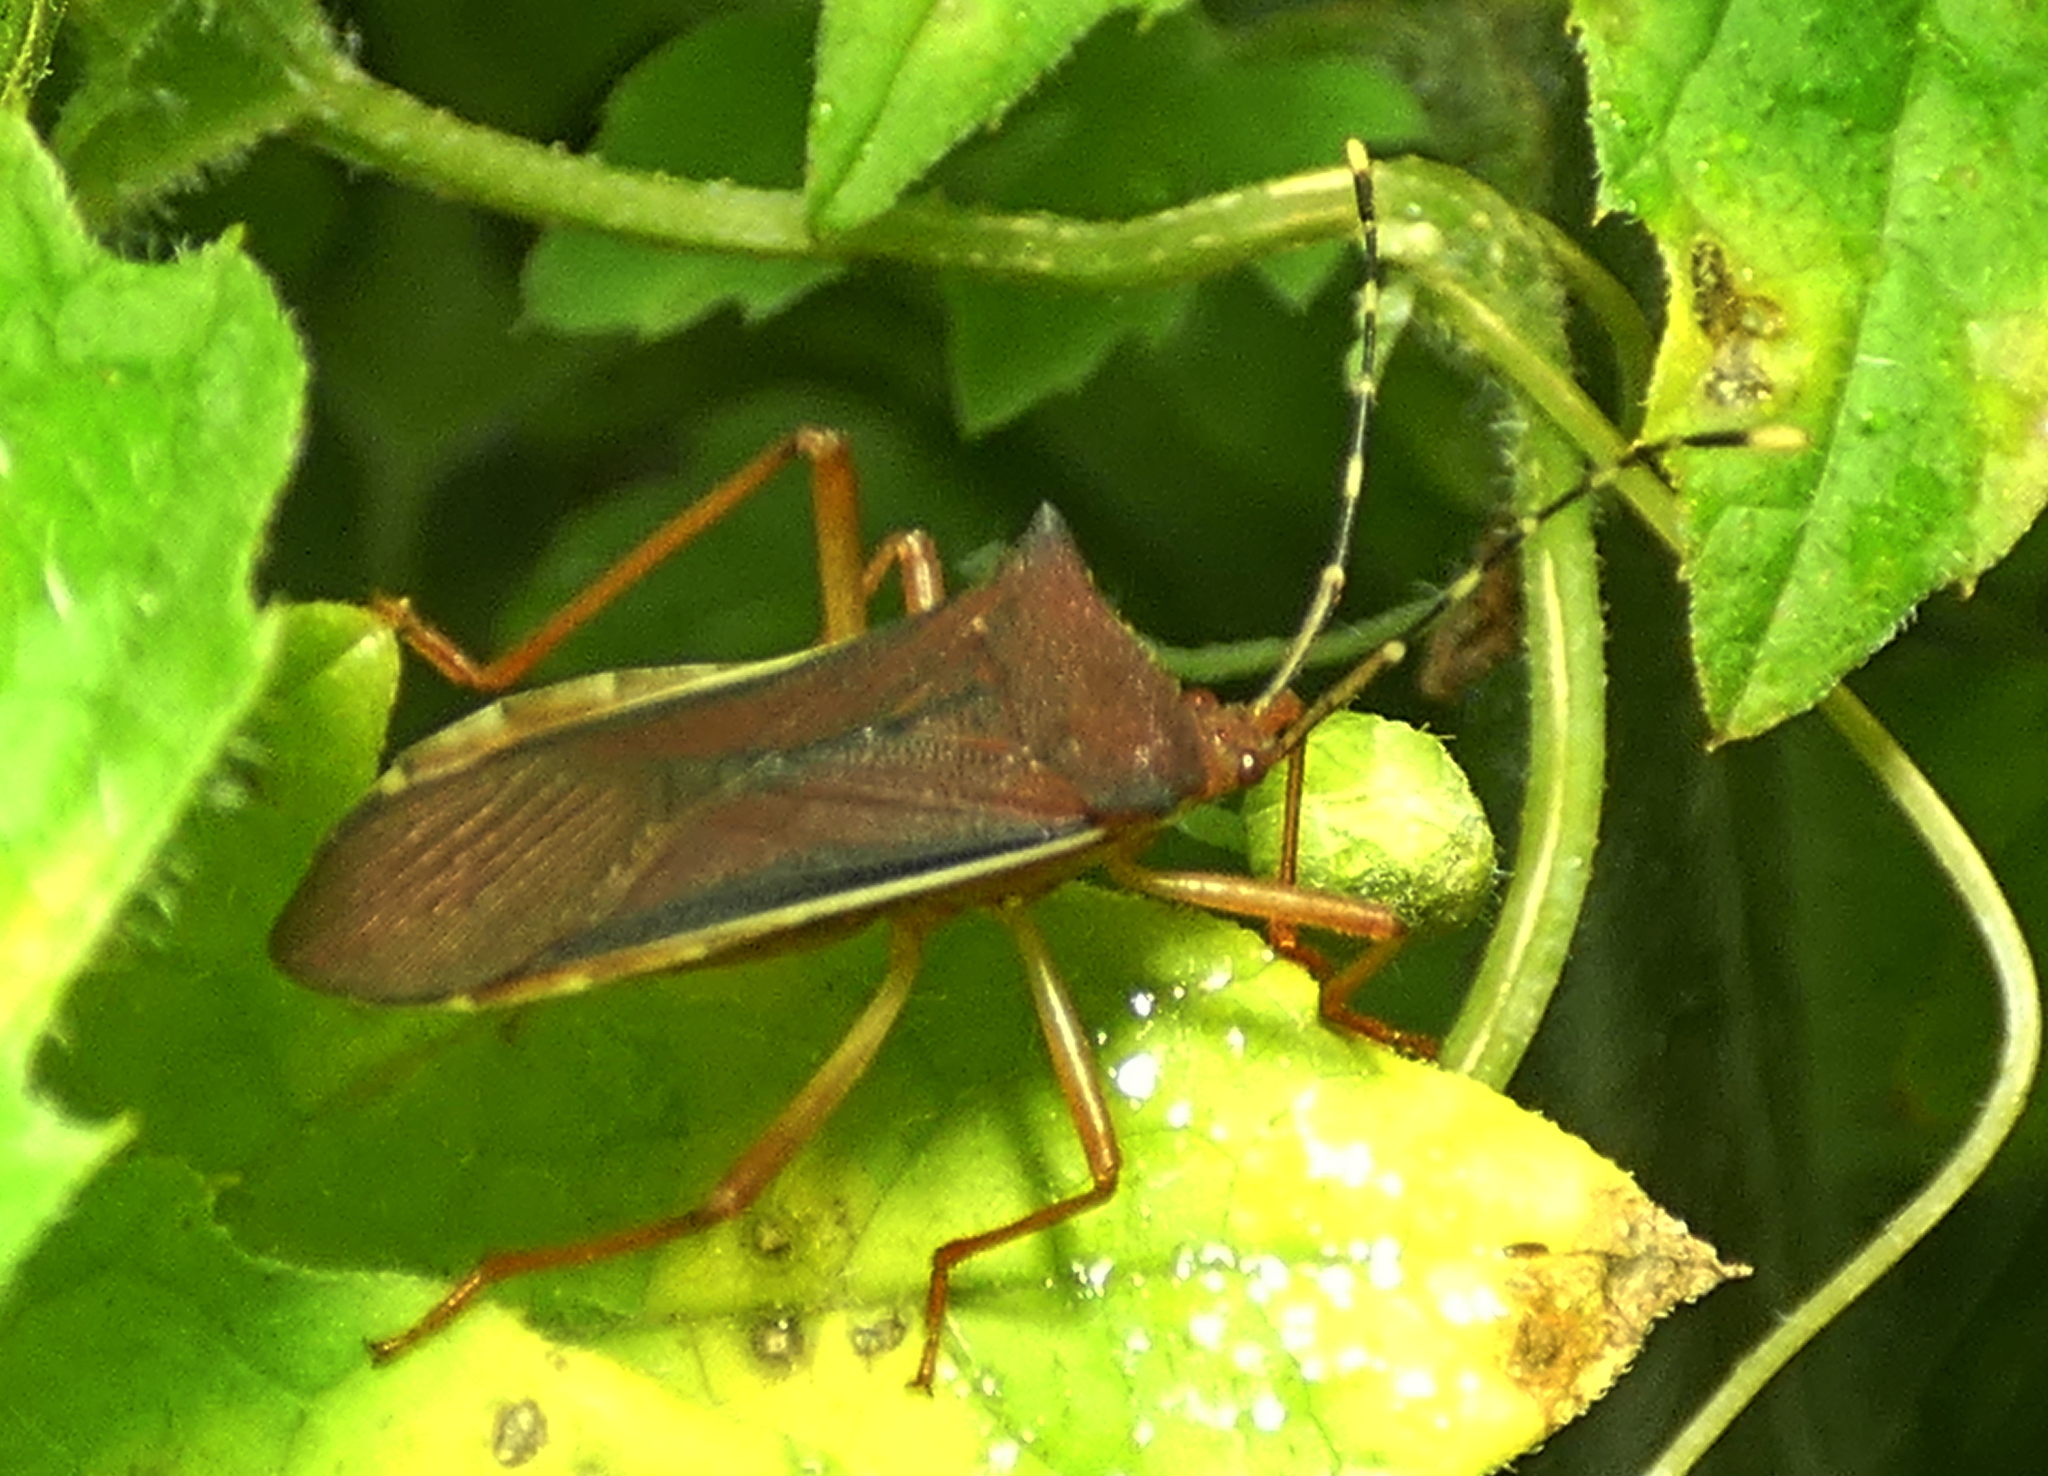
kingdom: Animalia
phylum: Arthropoda
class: Insecta
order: Hemiptera
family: Coreidae
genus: Anasa
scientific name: Anasa varicornis
